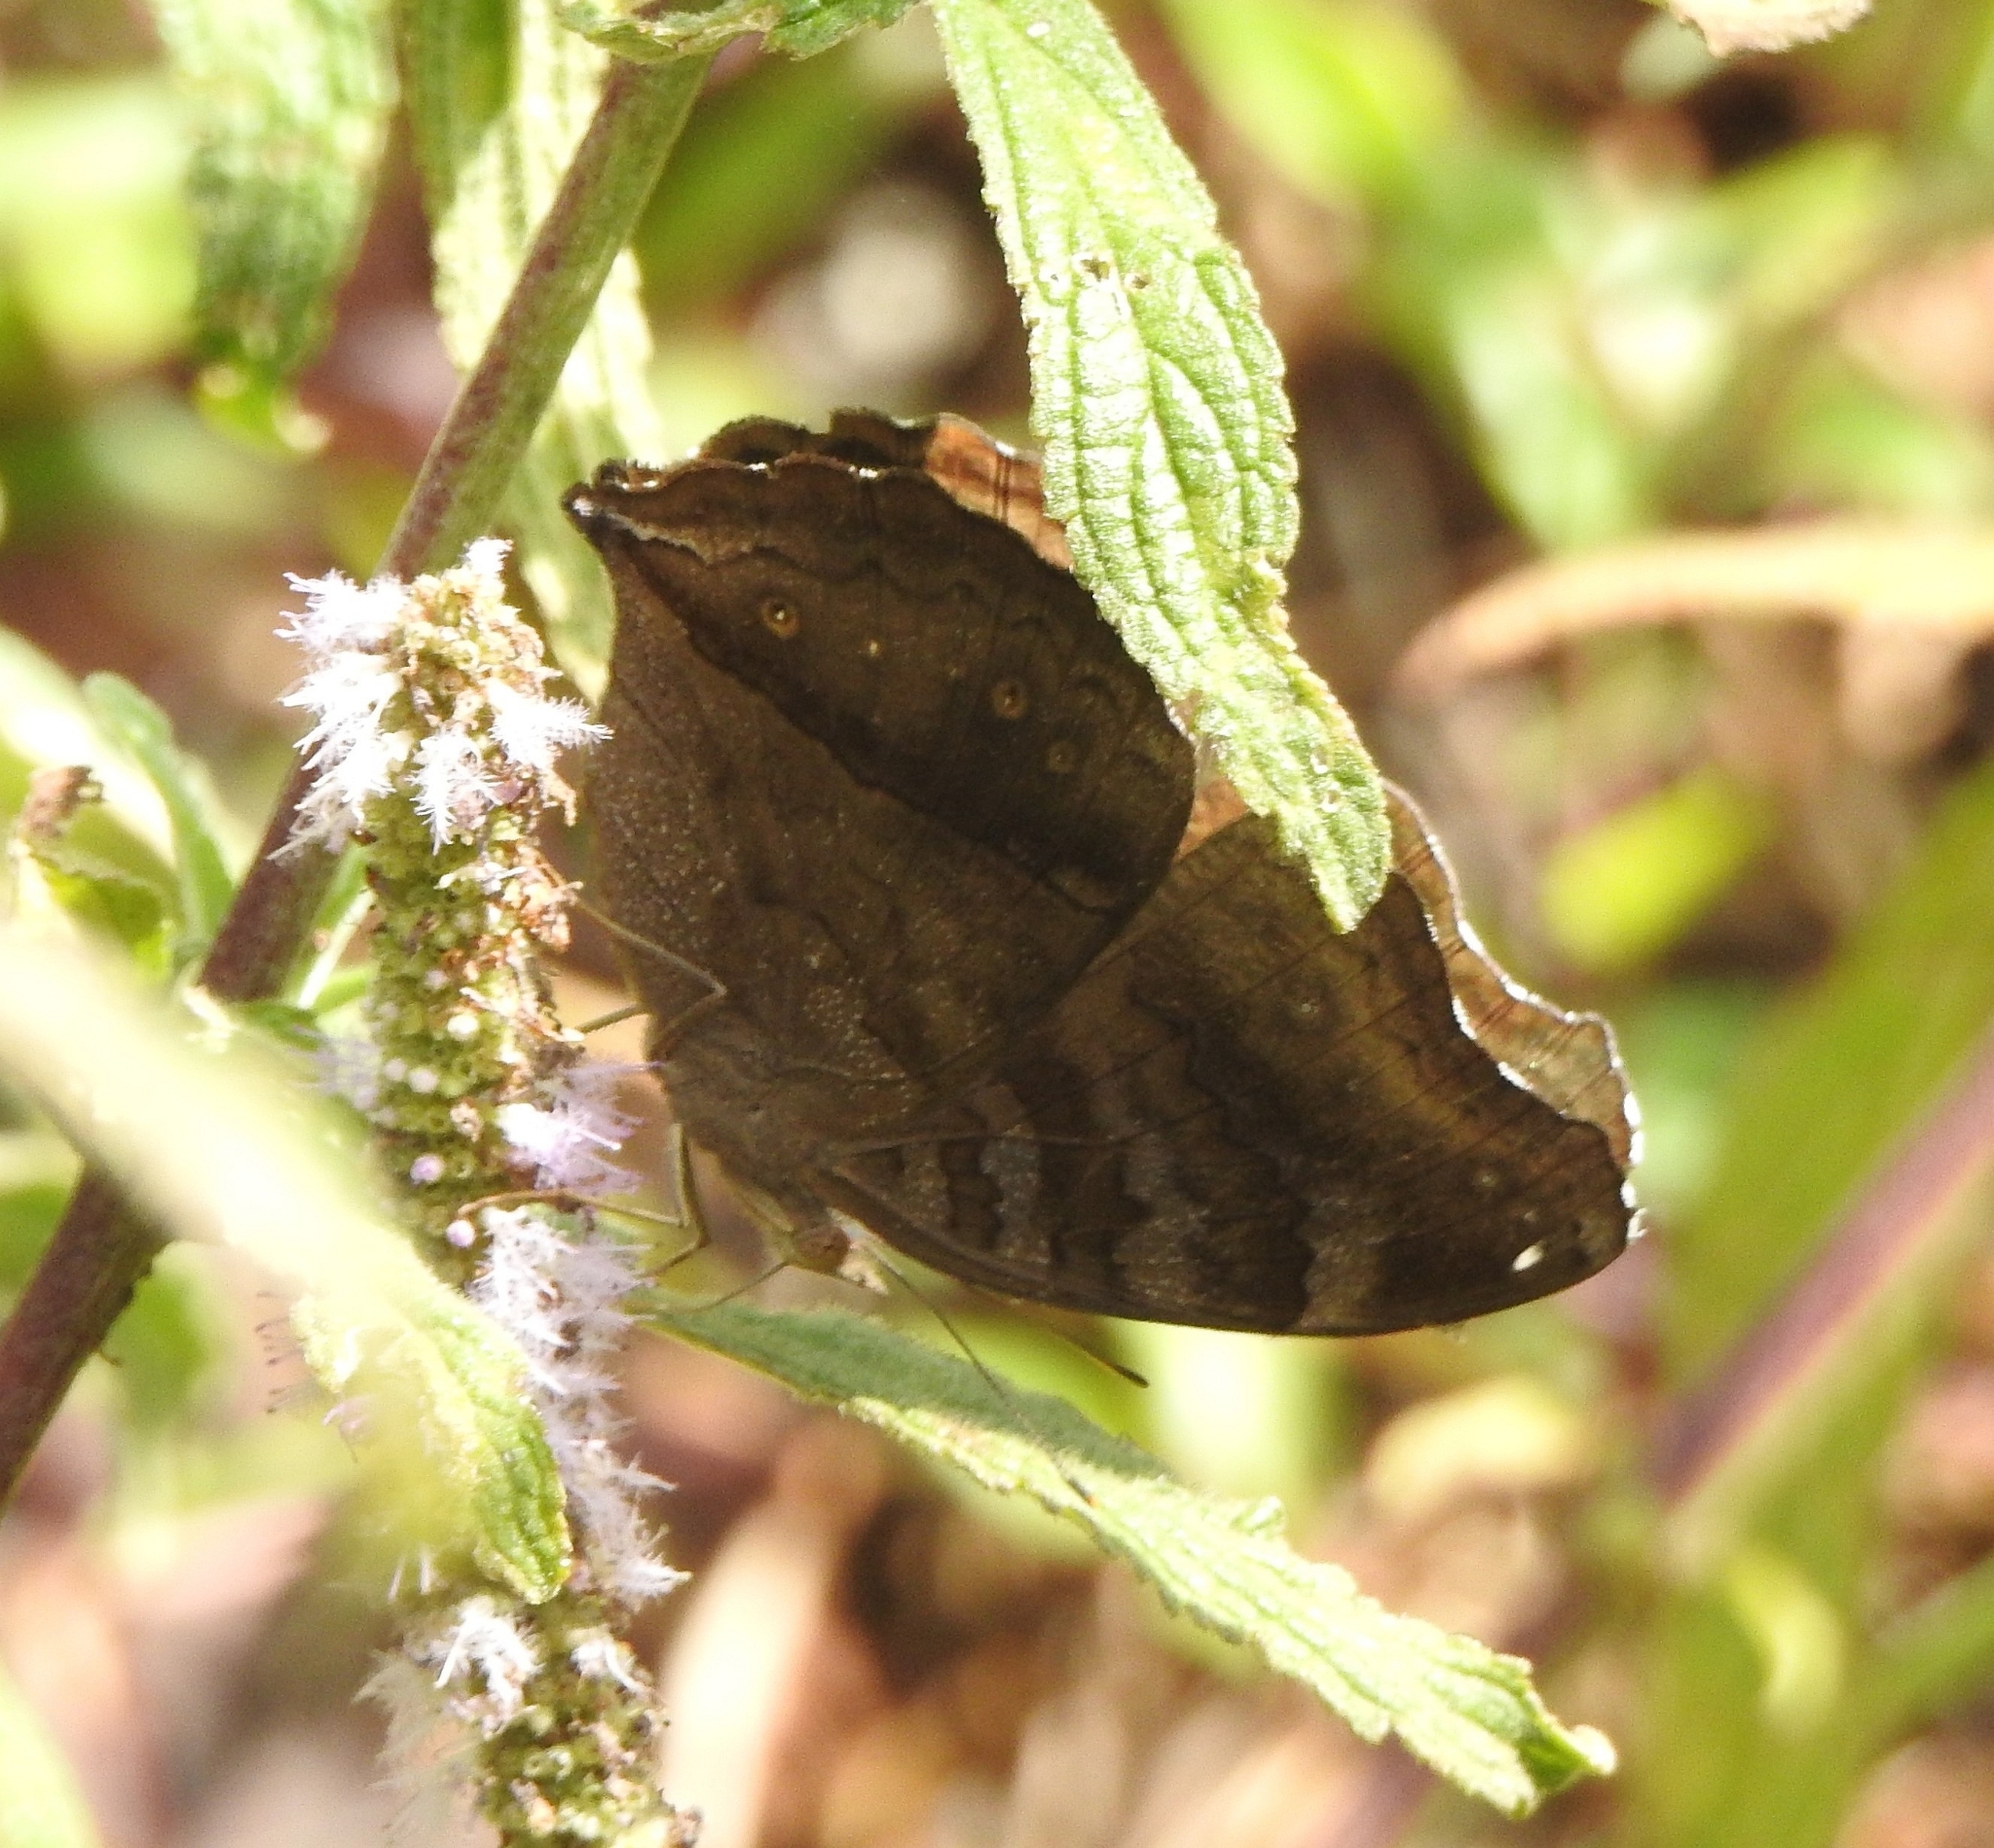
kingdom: Animalia
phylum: Arthropoda
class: Insecta
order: Lepidoptera
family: Nymphalidae
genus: Junonia
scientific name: Junonia iphita
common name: Chocolate pansy
